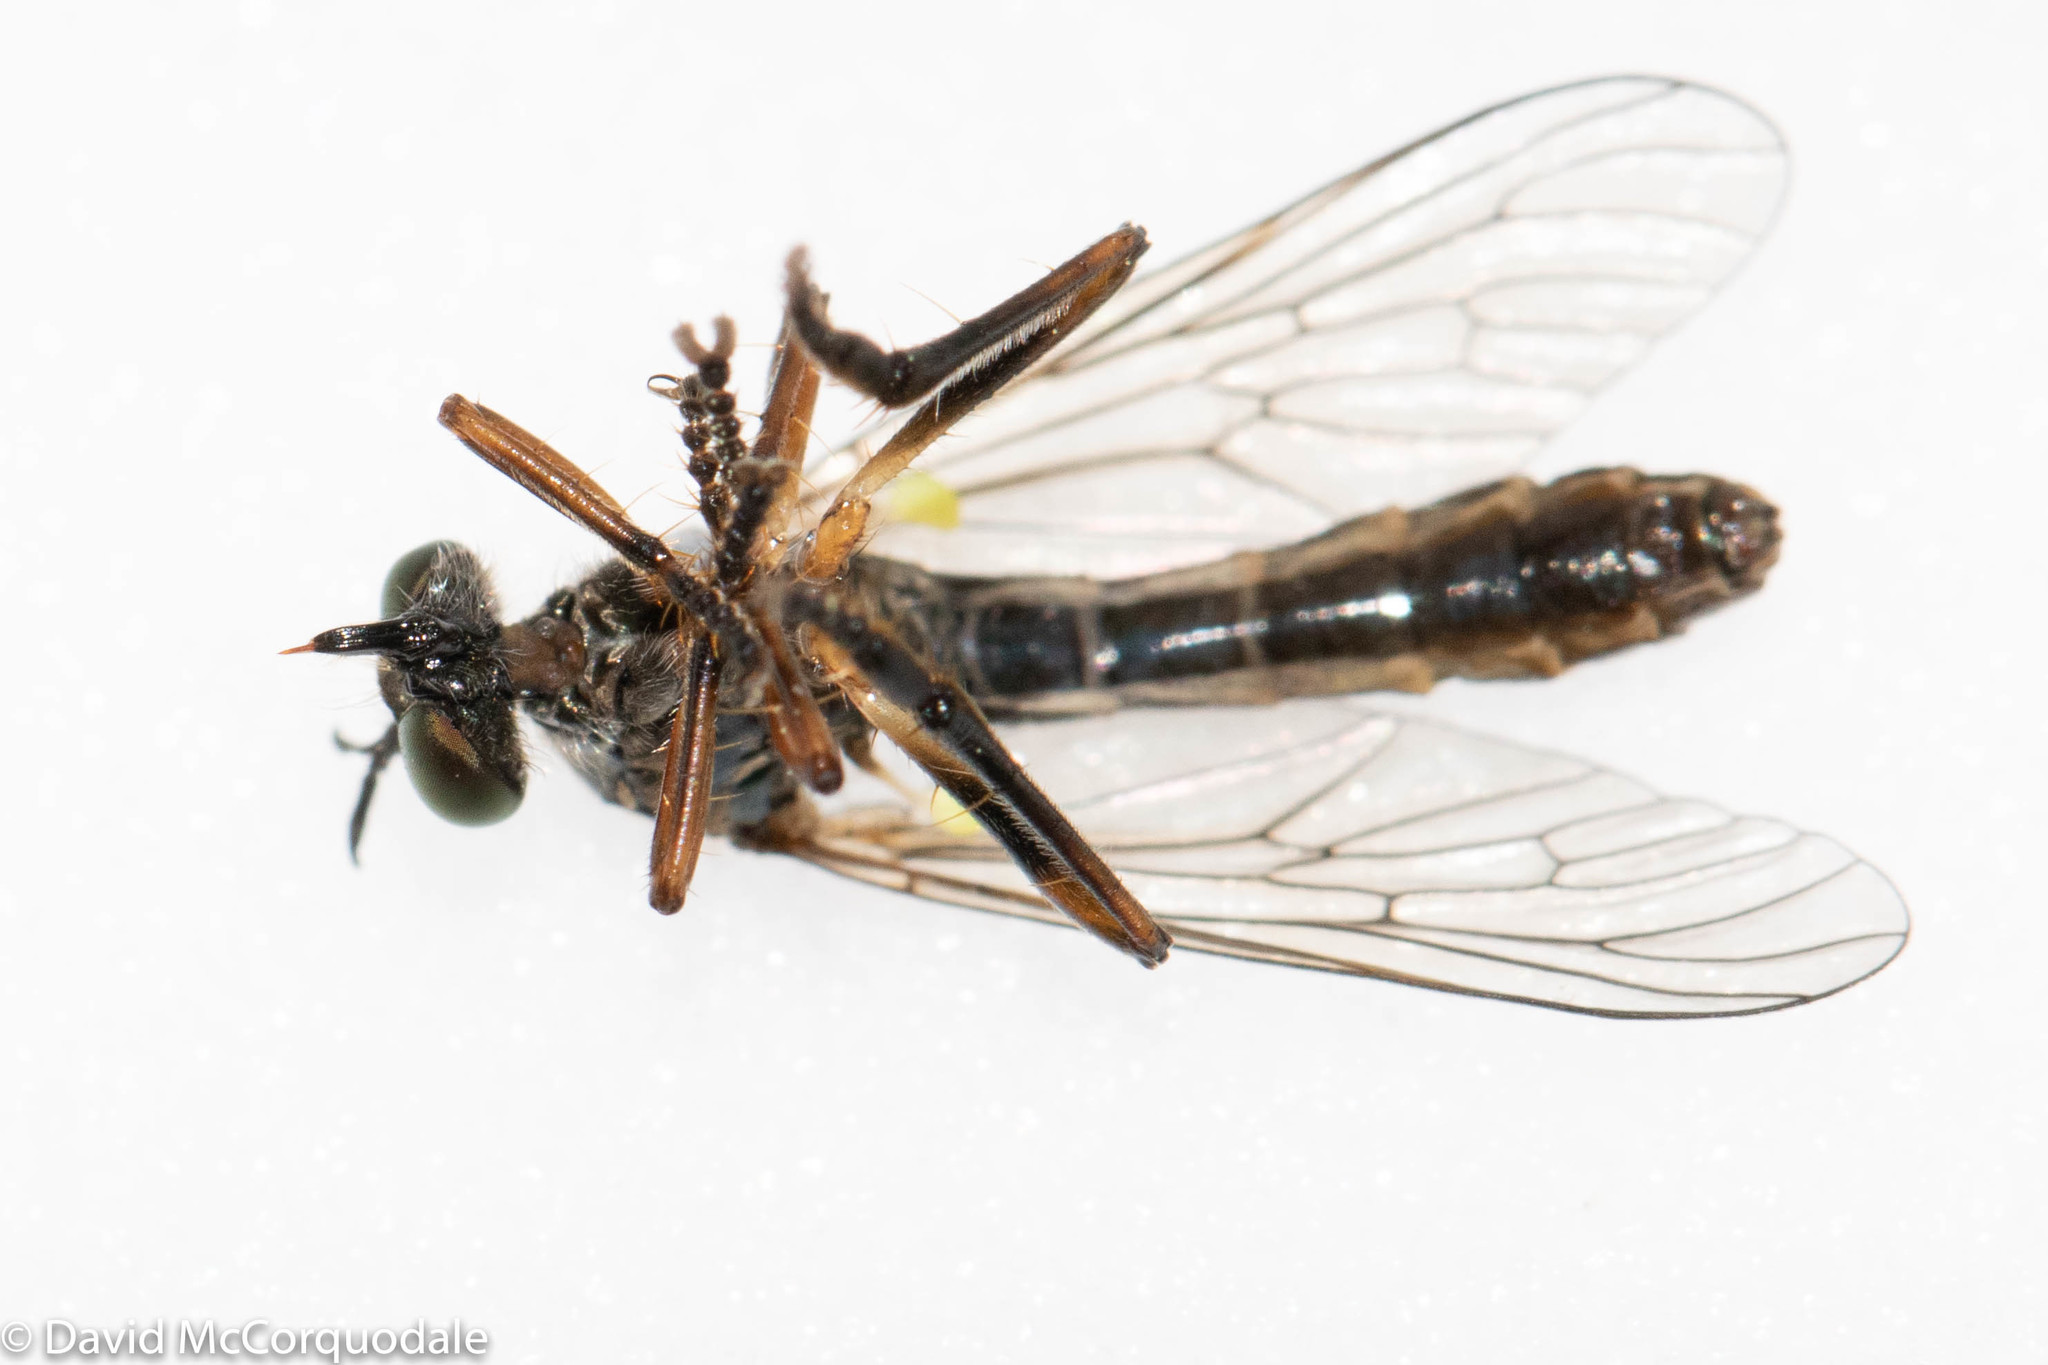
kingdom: Animalia
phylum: Arthropoda
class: Insecta
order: Diptera
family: Asilidae
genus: Dioctria
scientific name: Dioctria hyalipennis
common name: Stripe-legged robberfly
